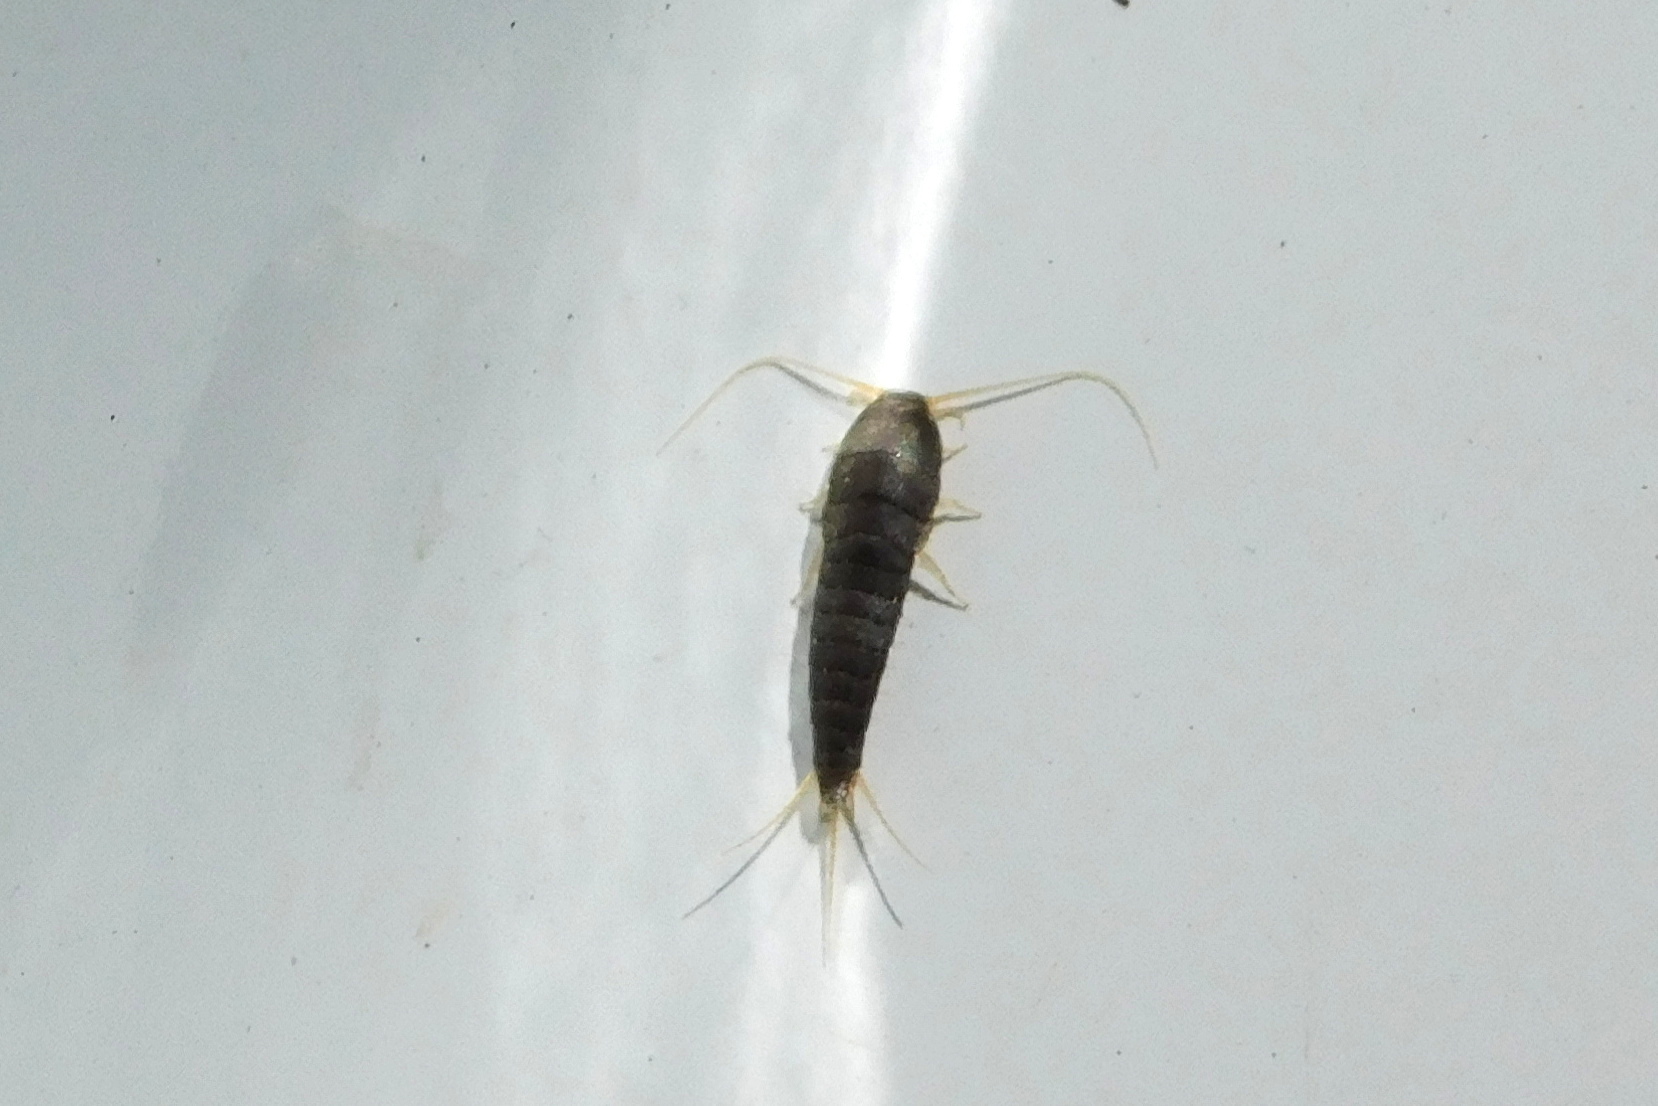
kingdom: Animalia
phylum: Arthropoda
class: Insecta
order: Zygentoma
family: Lepismatidae
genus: Lepisma
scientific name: Lepisma saccharinum
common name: Silverfish
